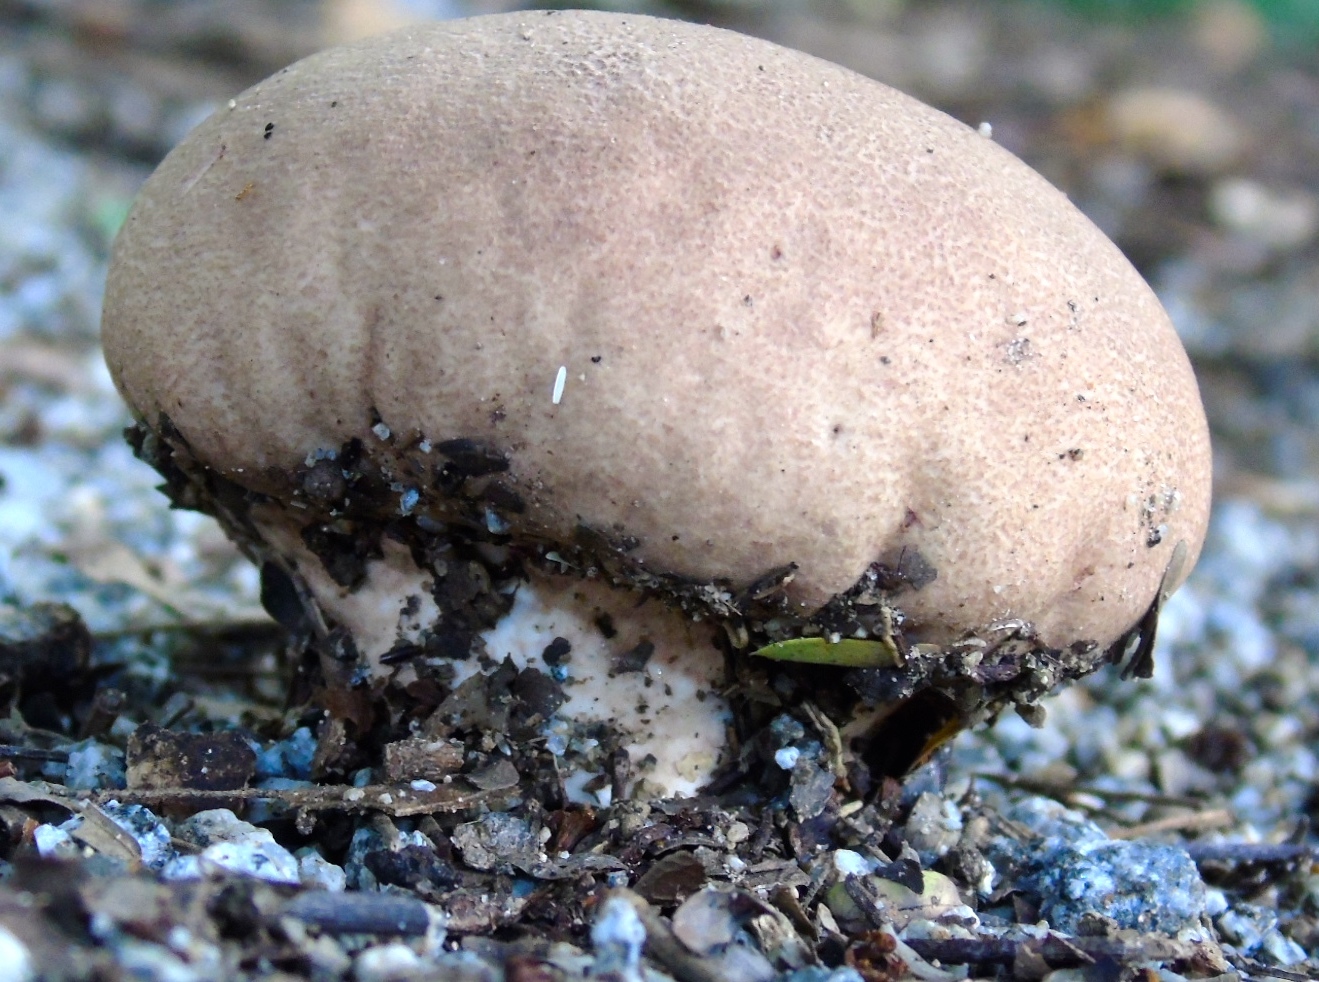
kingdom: Fungi
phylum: Basidiomycota
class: Agaricomycetes
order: Agaricales
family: Lycoperdaceae
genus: Calvatia
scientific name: Calvatia
